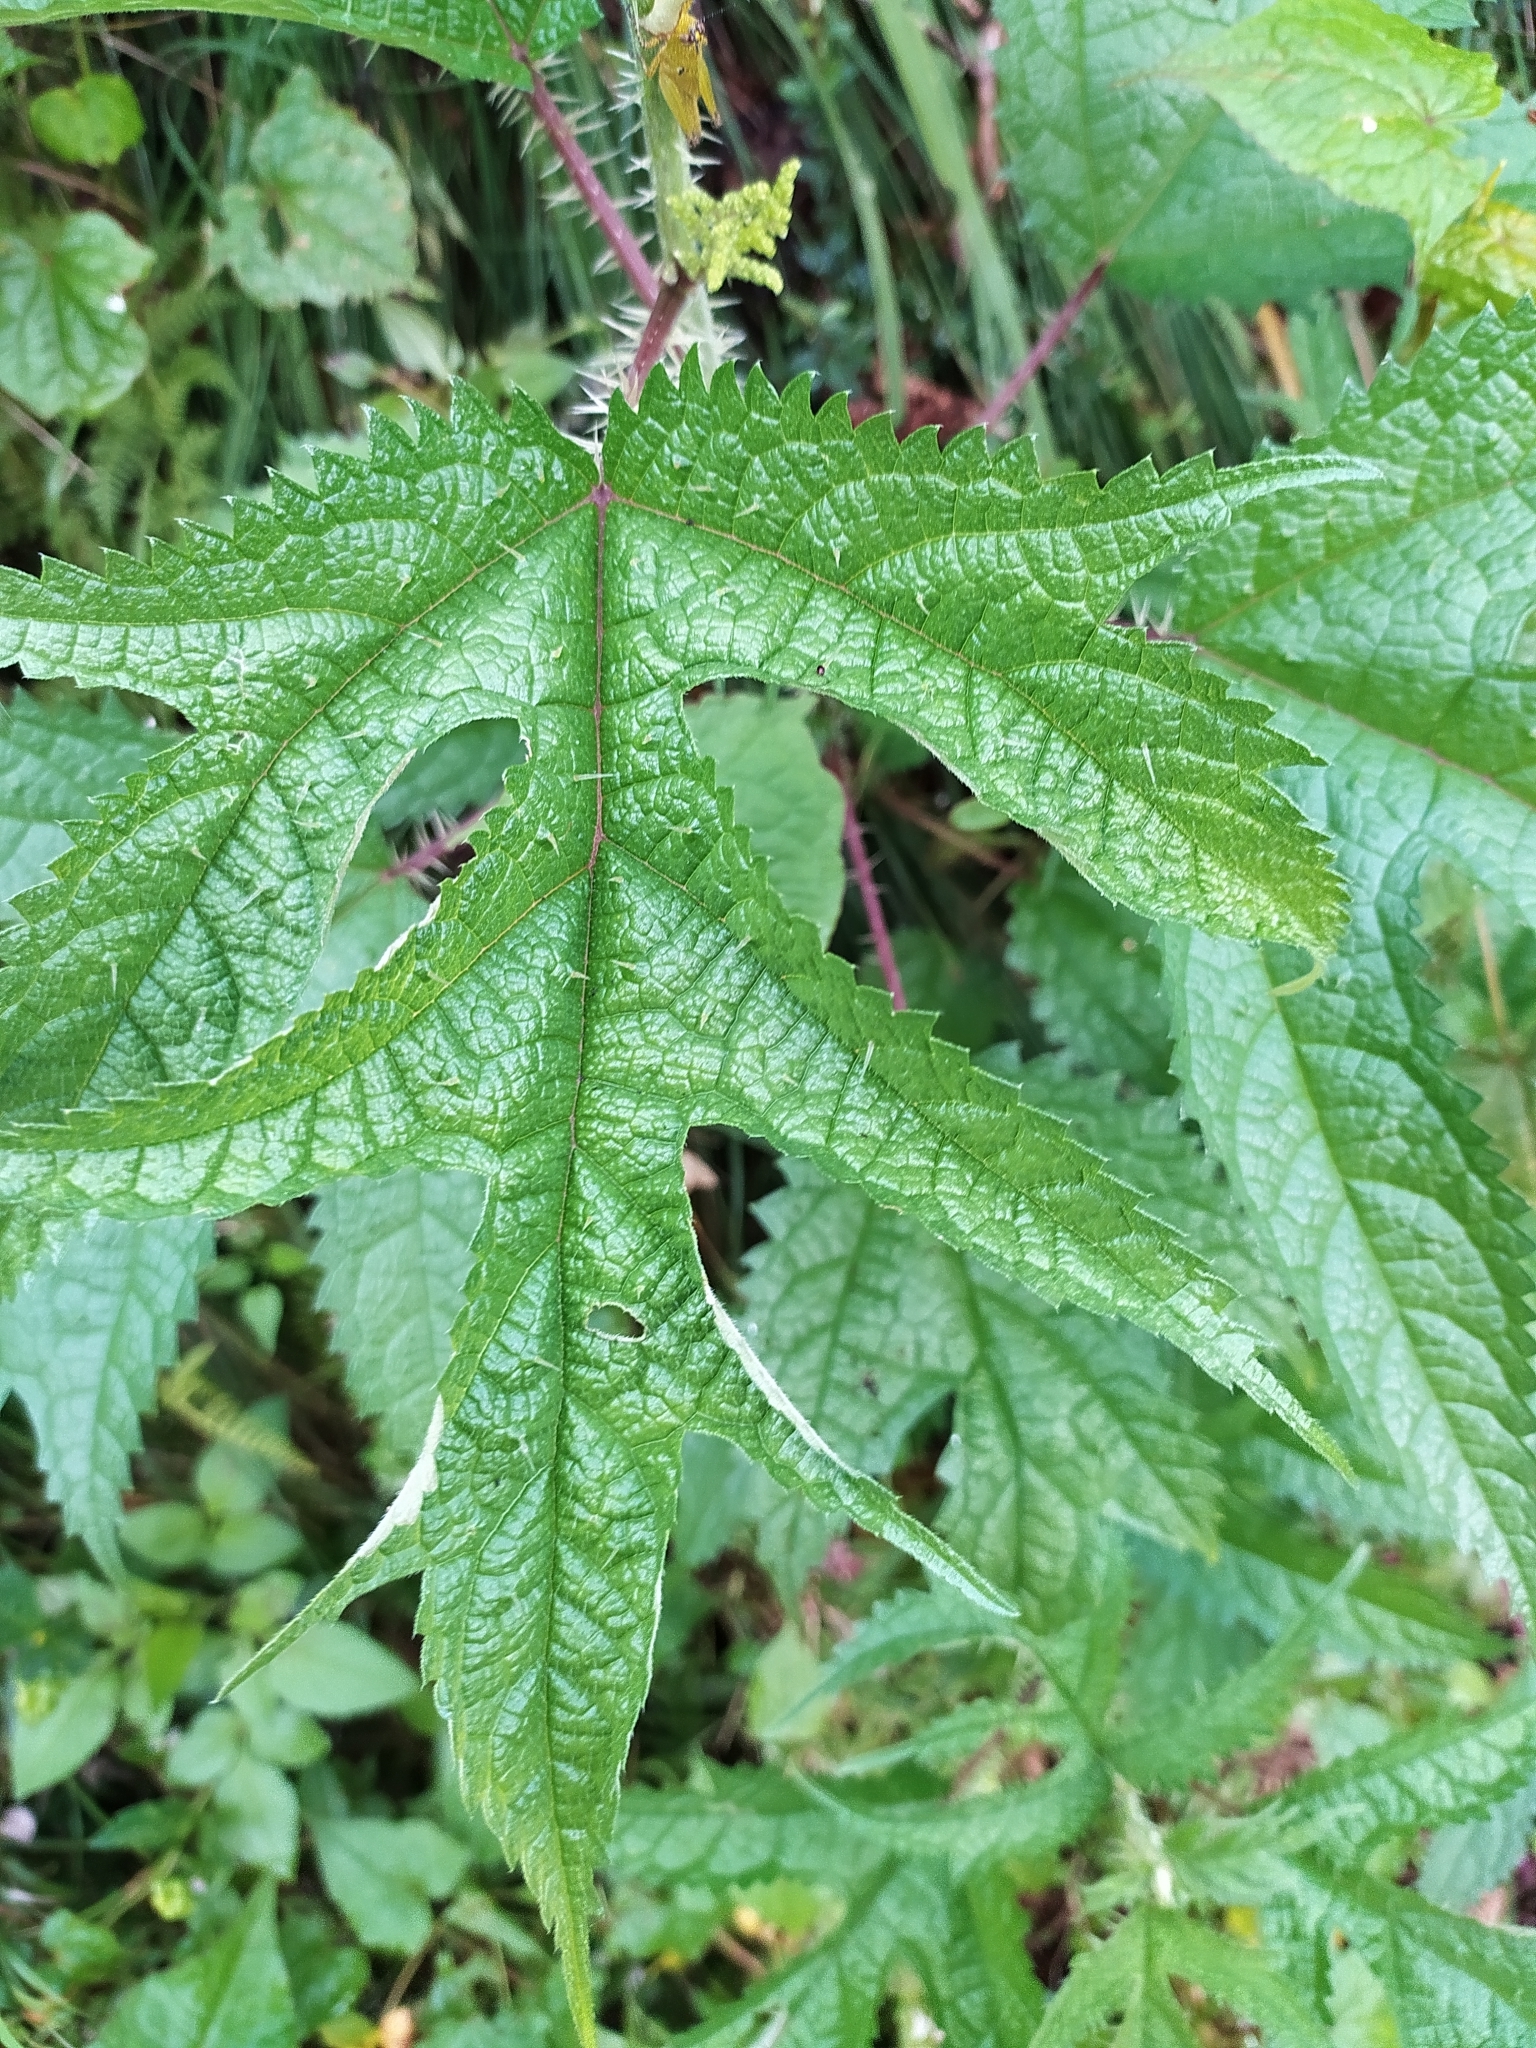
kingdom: Plantae
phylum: Tracheophyta
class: Magnoliopsida
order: Rosales
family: Urticaceae
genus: Girardinia
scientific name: Girardinia diversifolia
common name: Himalayan-nettle
